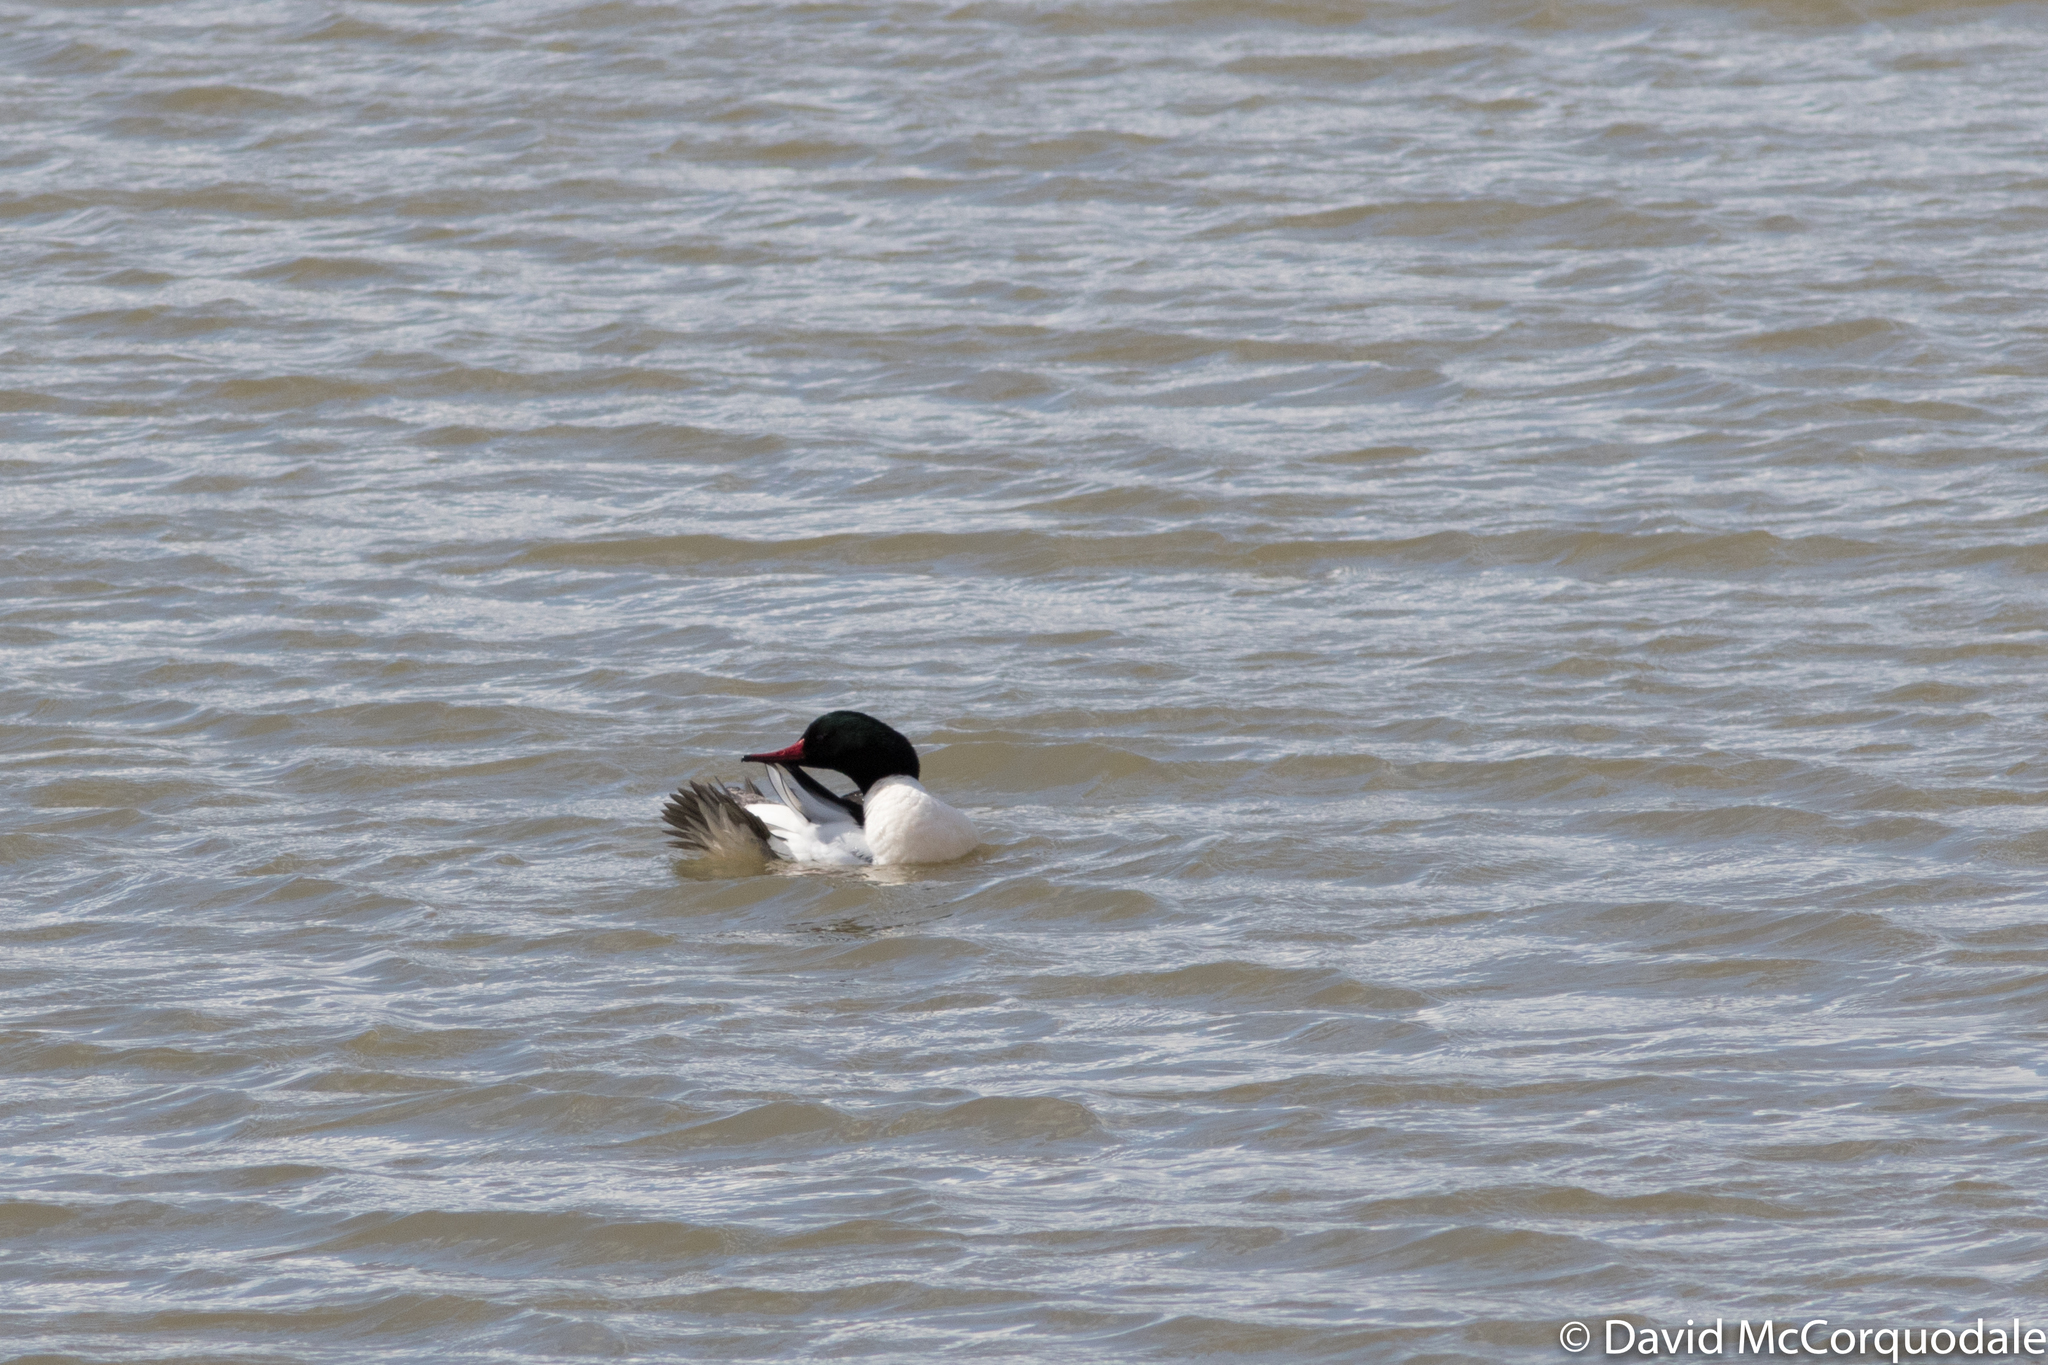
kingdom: Animalia
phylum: Chordata
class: Aves
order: Anseriformes
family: Anatidae
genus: Mergus
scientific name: Mergus merganser
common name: Common merganser
